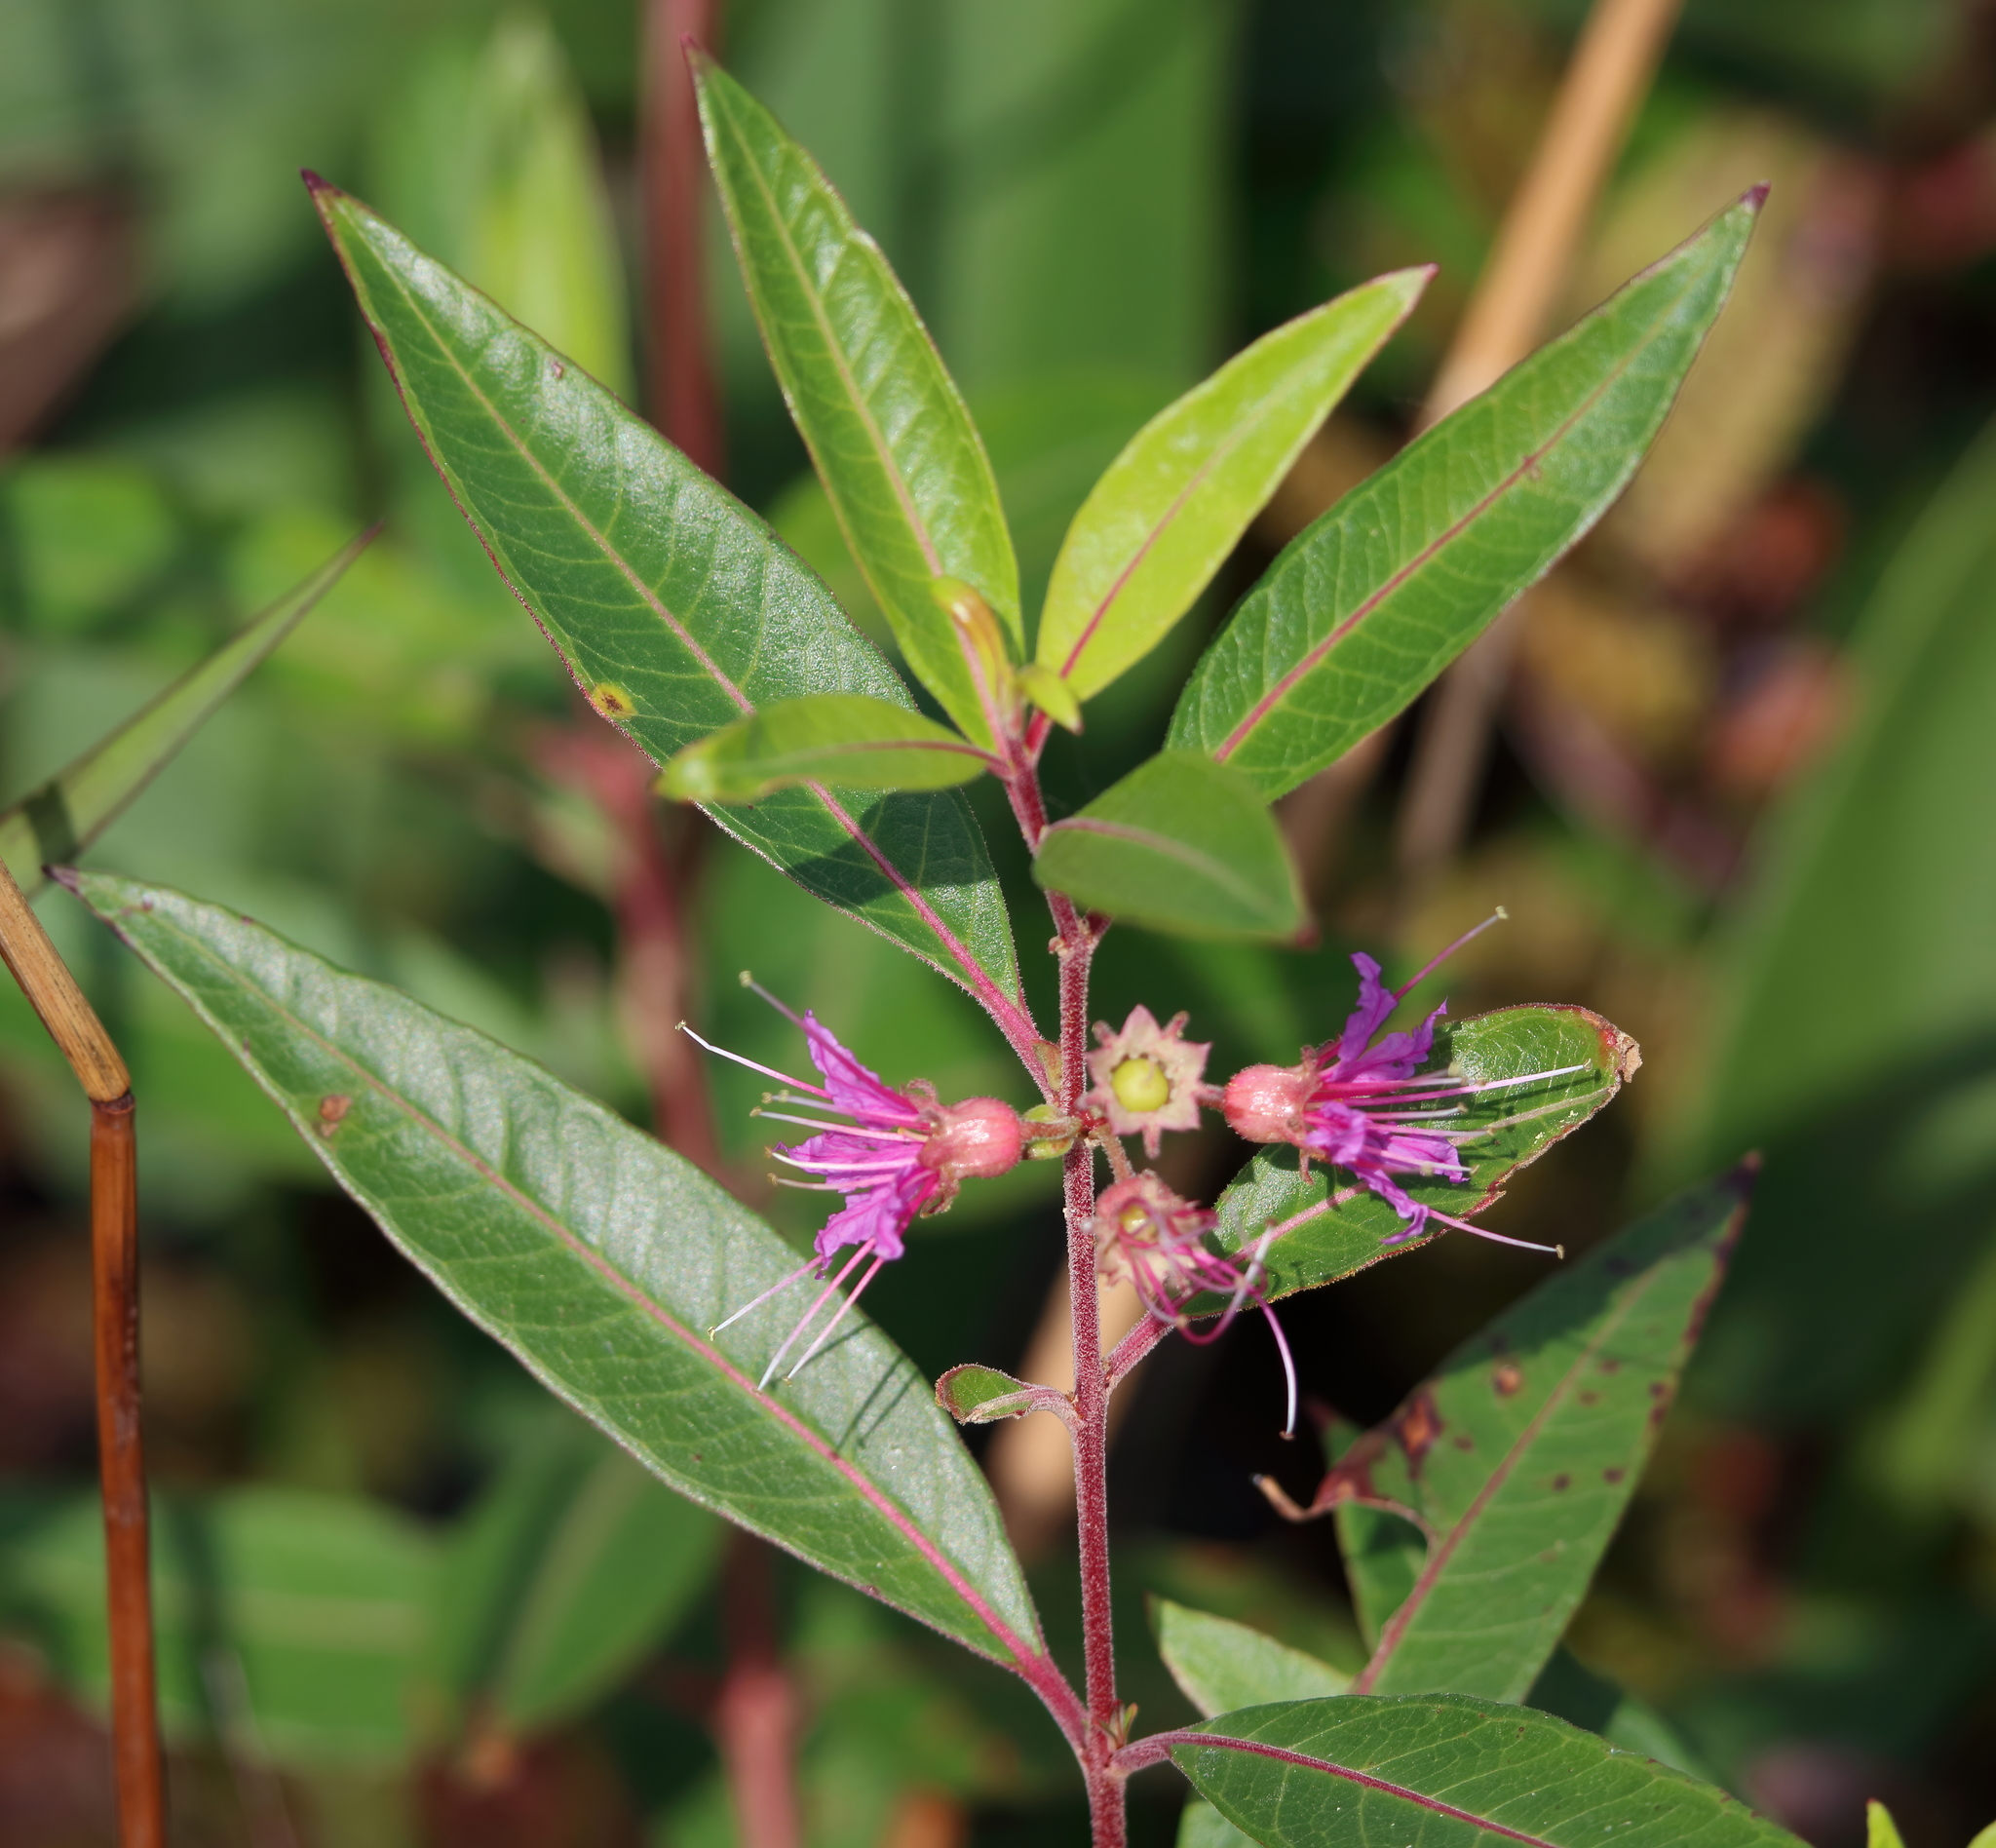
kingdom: Plantae
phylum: Tracheophyta
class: Magnoliopsida
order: Myrtales
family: Lythraceae
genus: Decodon
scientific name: Decodon verticillatus
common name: Hairy swamp loosestrife
